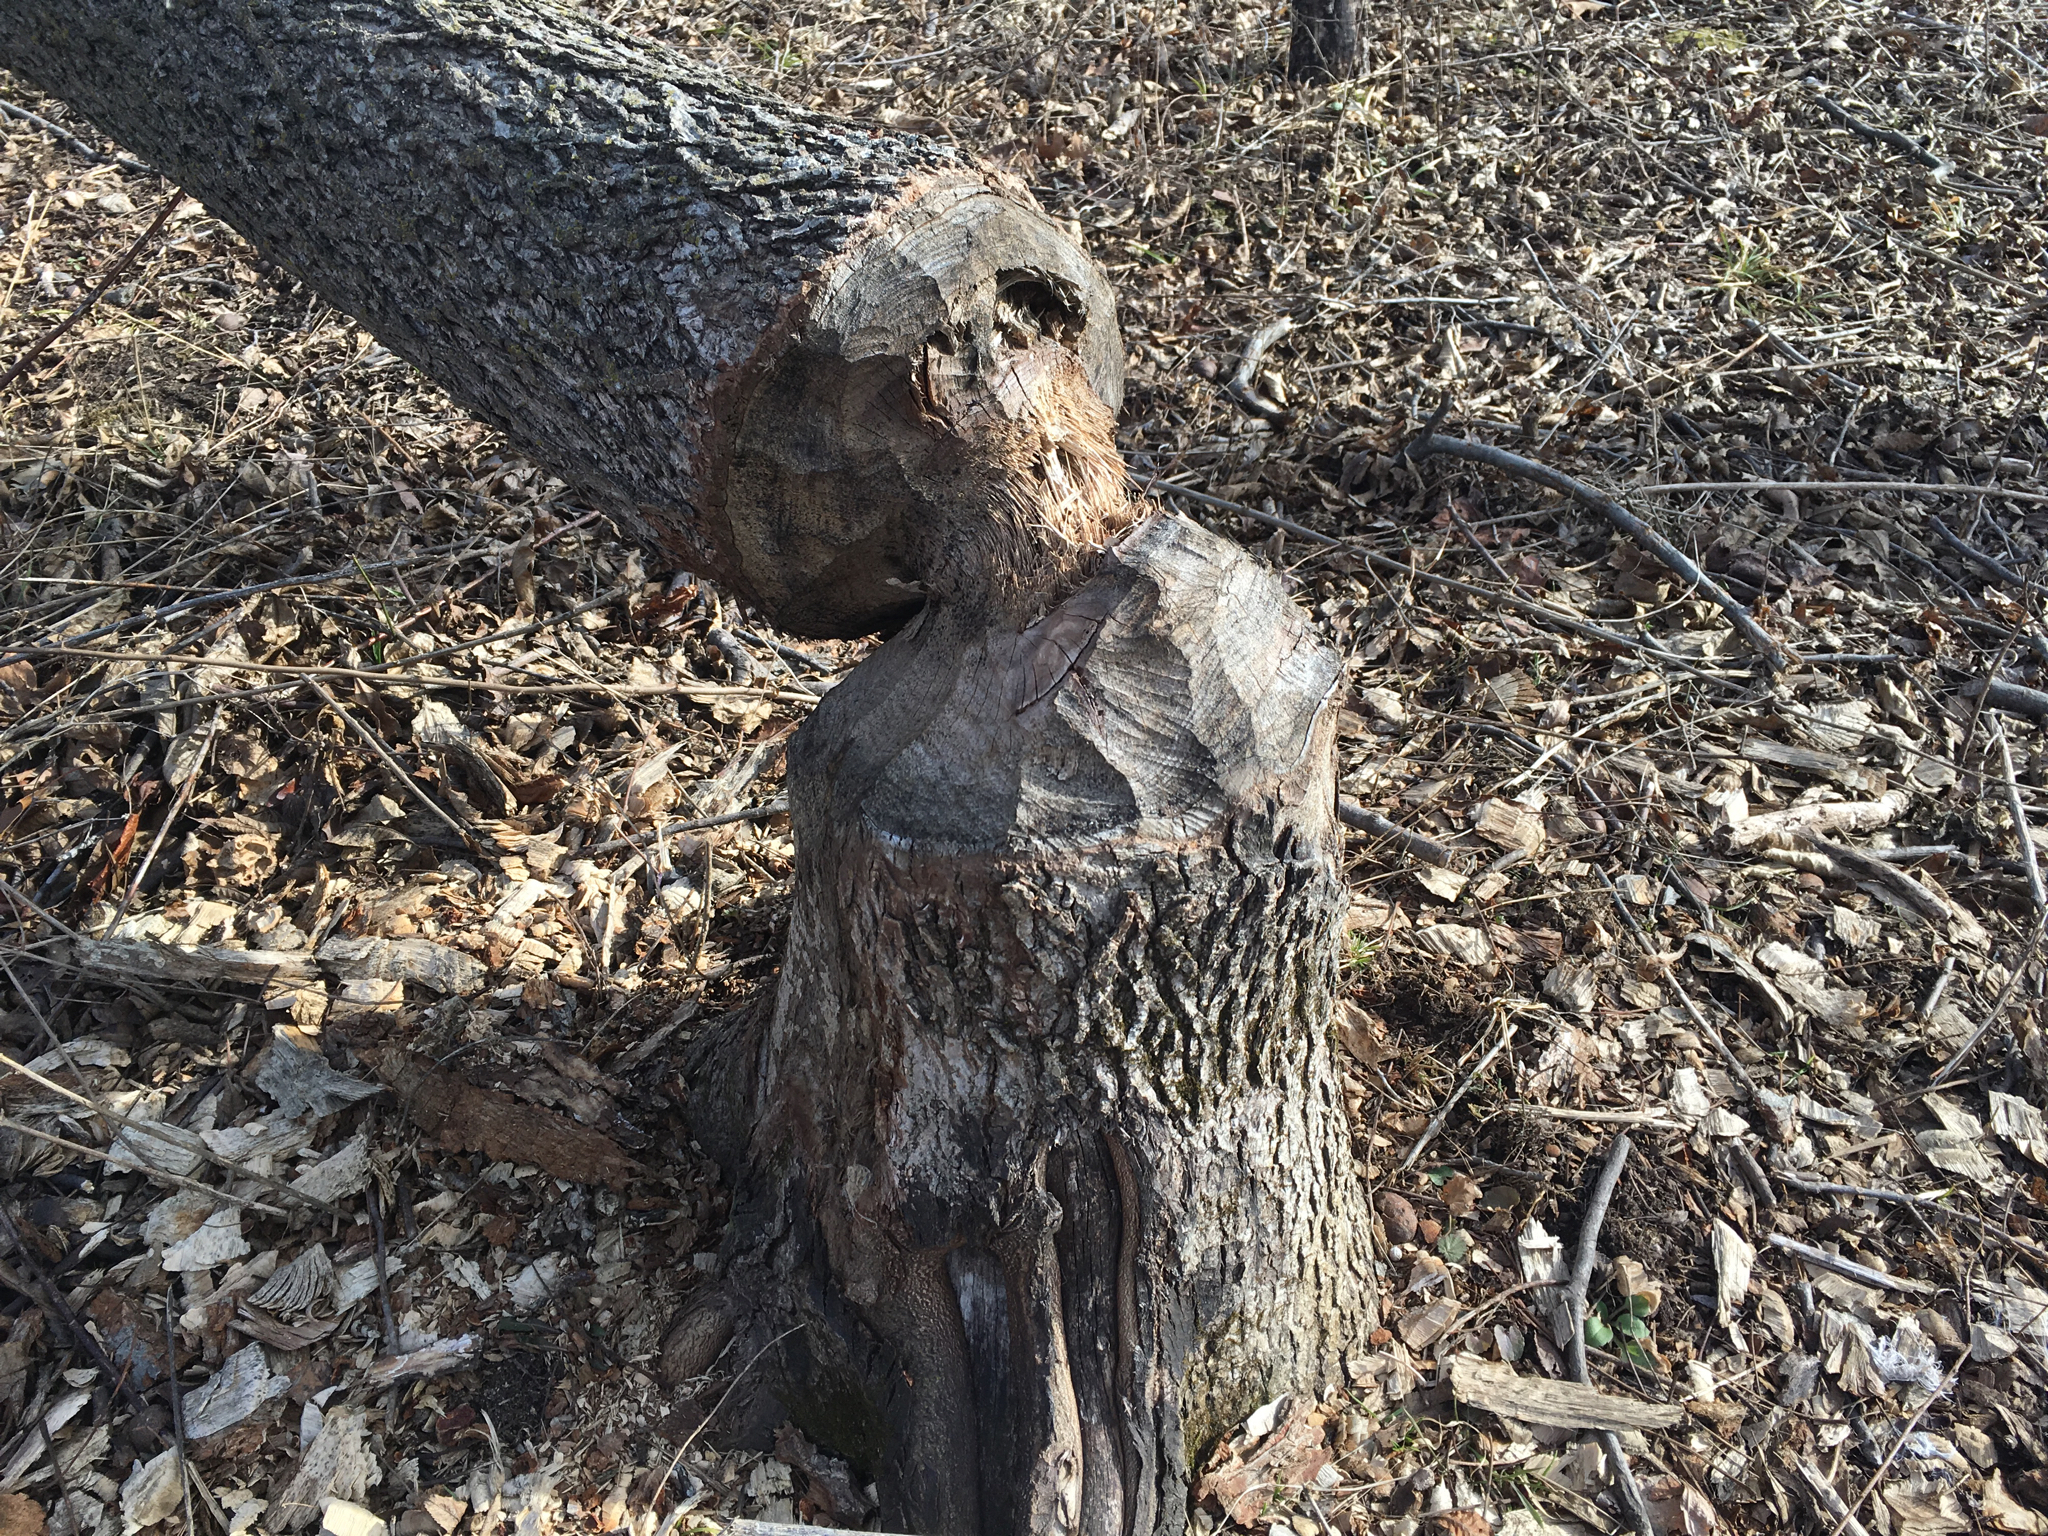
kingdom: Animalia
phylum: Chordata
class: Mammalia
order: Rodentia
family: Castoridae
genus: Castor
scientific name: Castor canadensis
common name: American beaver
